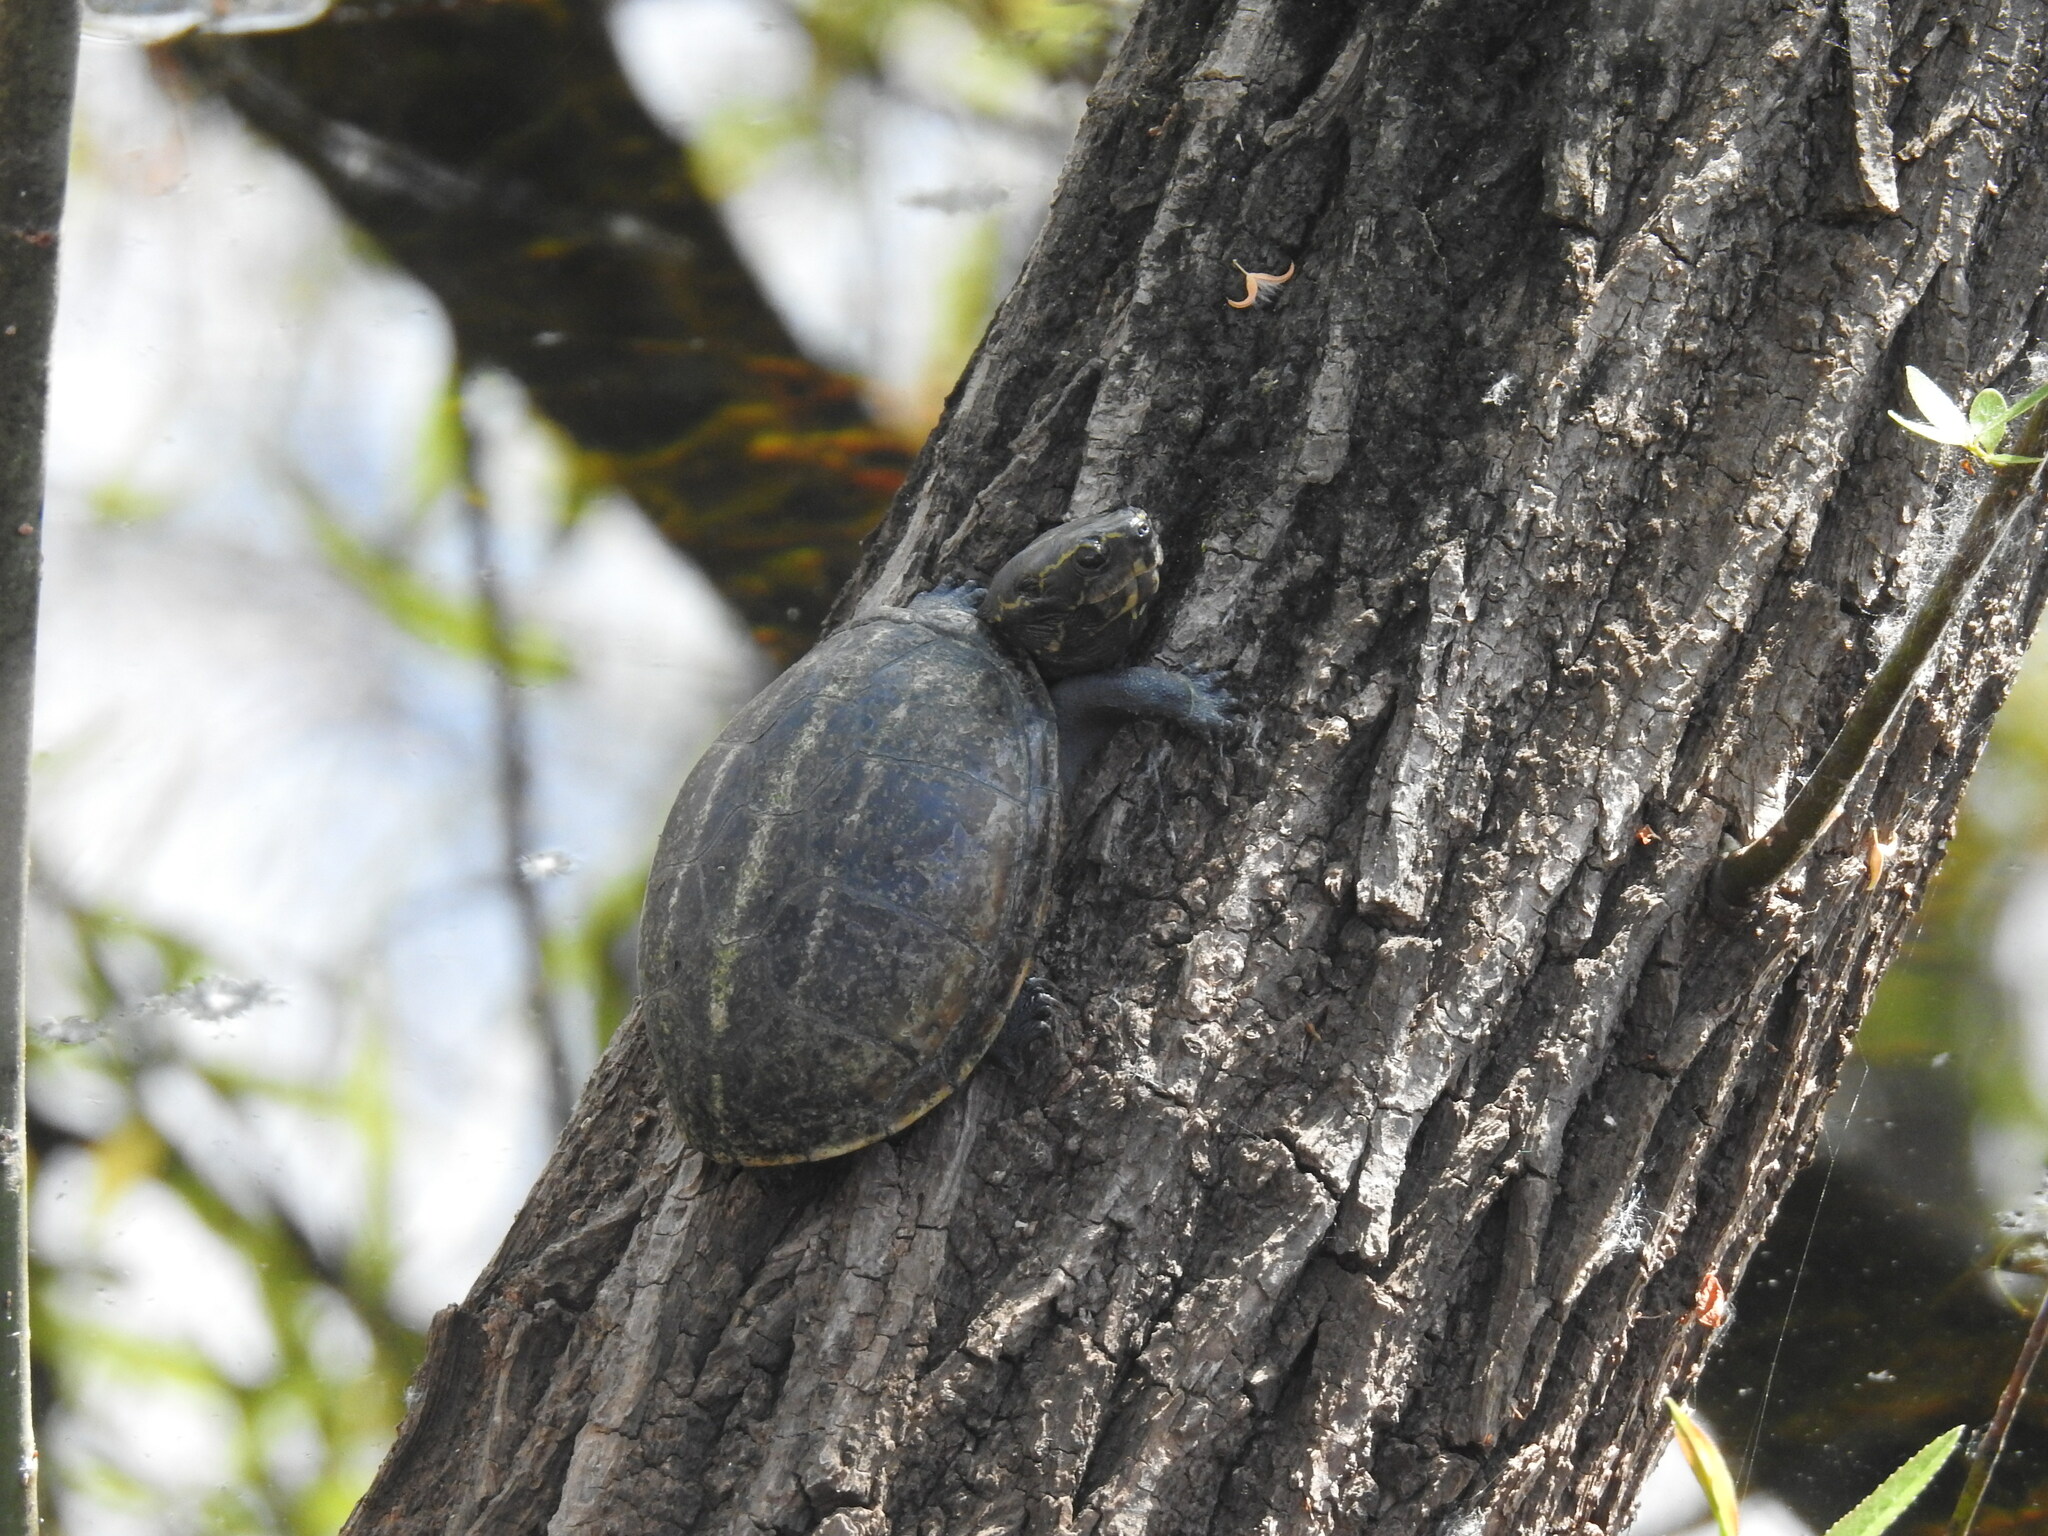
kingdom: Animalia
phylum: Chordata
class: Testudines
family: Kinosternidae
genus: Kinosternon
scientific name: Kinosternon baurii
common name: Striped mud turtle
